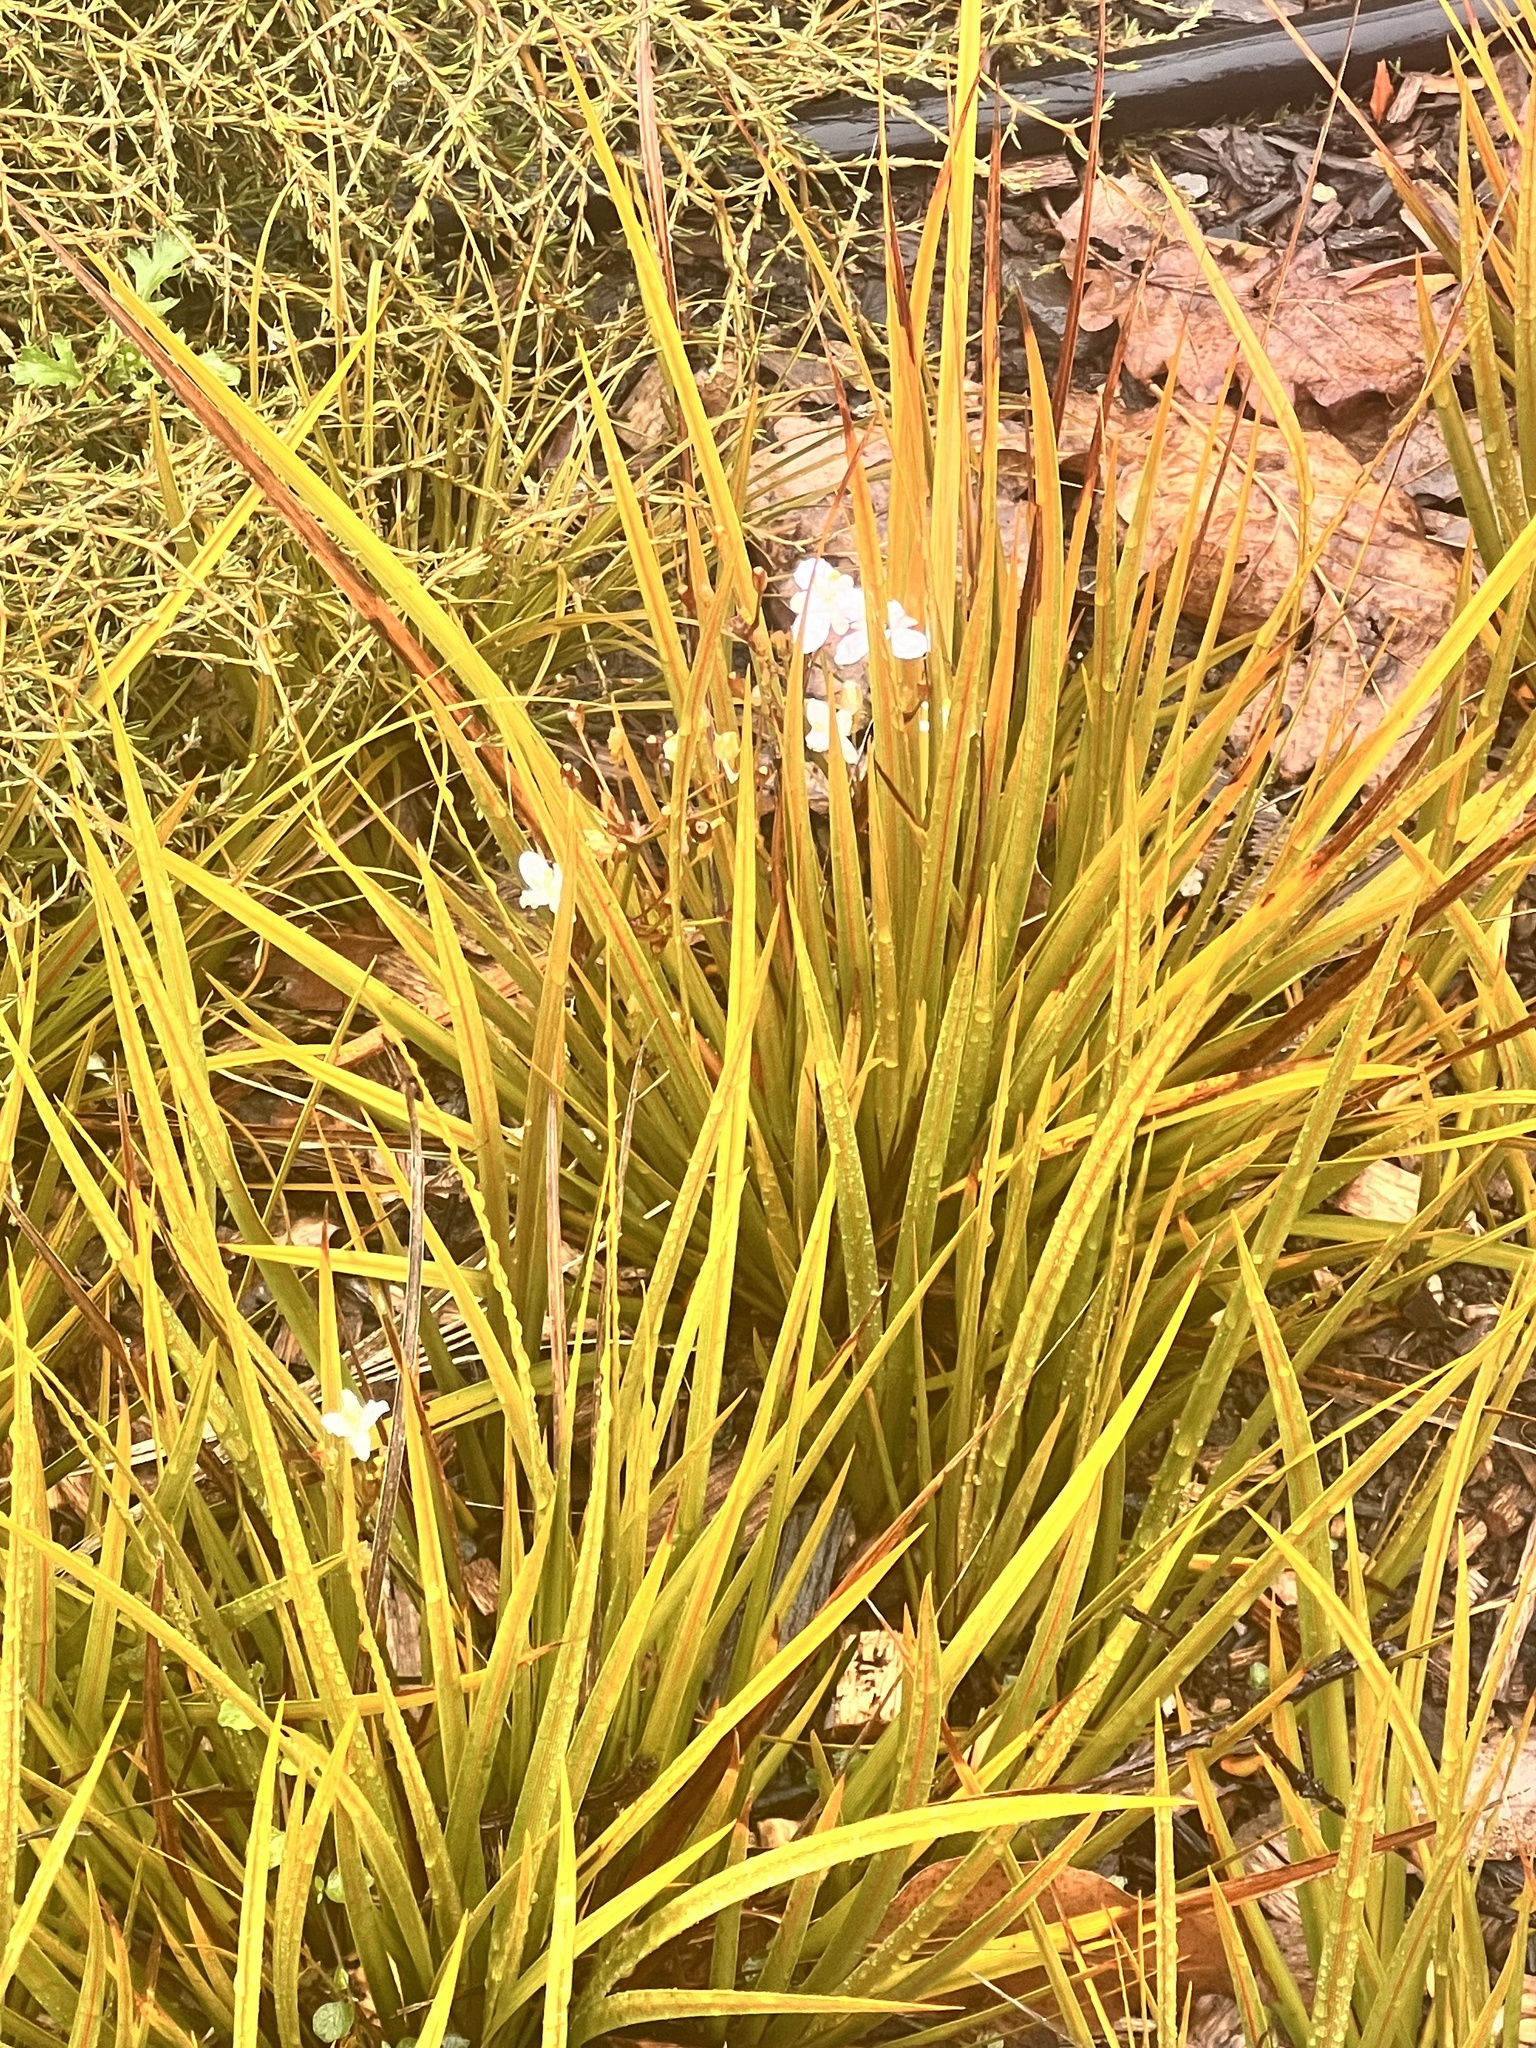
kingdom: Plantae
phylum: Tracheophyta
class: Liliopsida
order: Asparagales
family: Iridaceae
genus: Libertia
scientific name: Libertia peregrinans
